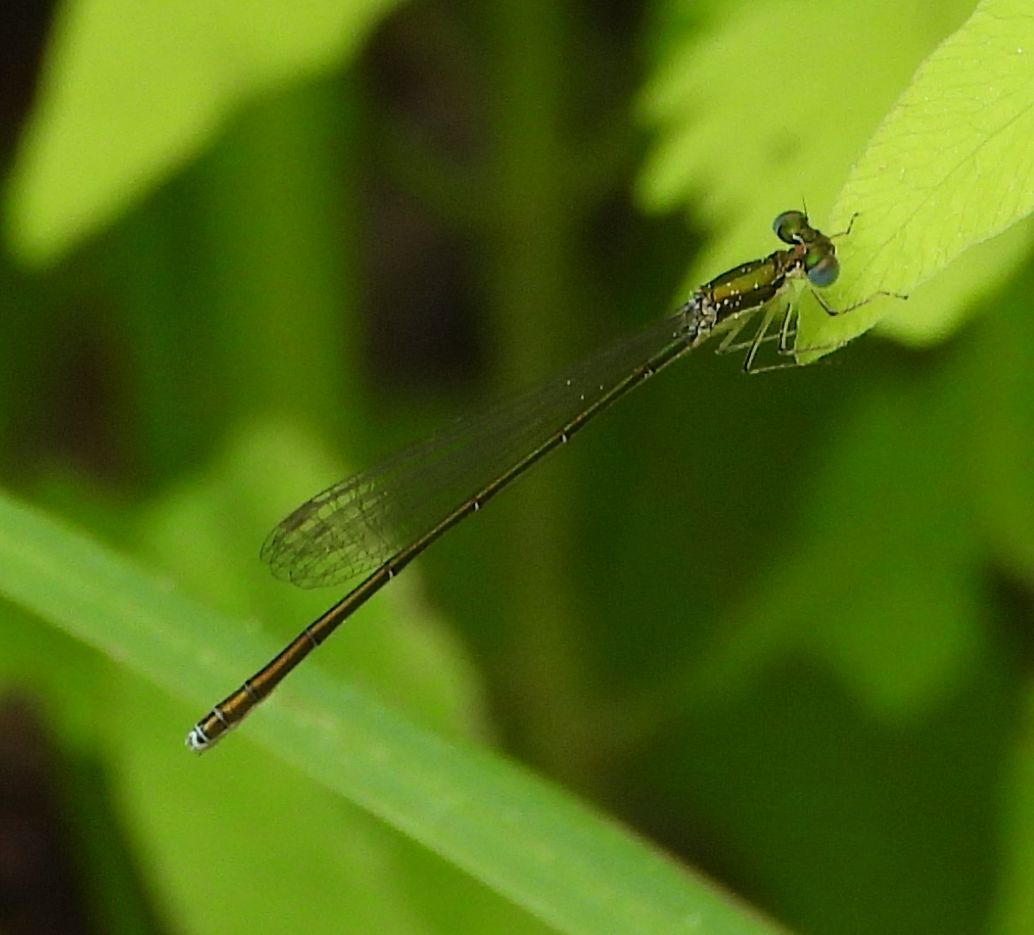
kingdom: Animalia
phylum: Arthropoda
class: Insecta
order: Odonata
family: Coenagrionidae
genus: Nehalennia
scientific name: Nehalennia irene
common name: Sedge sprite
